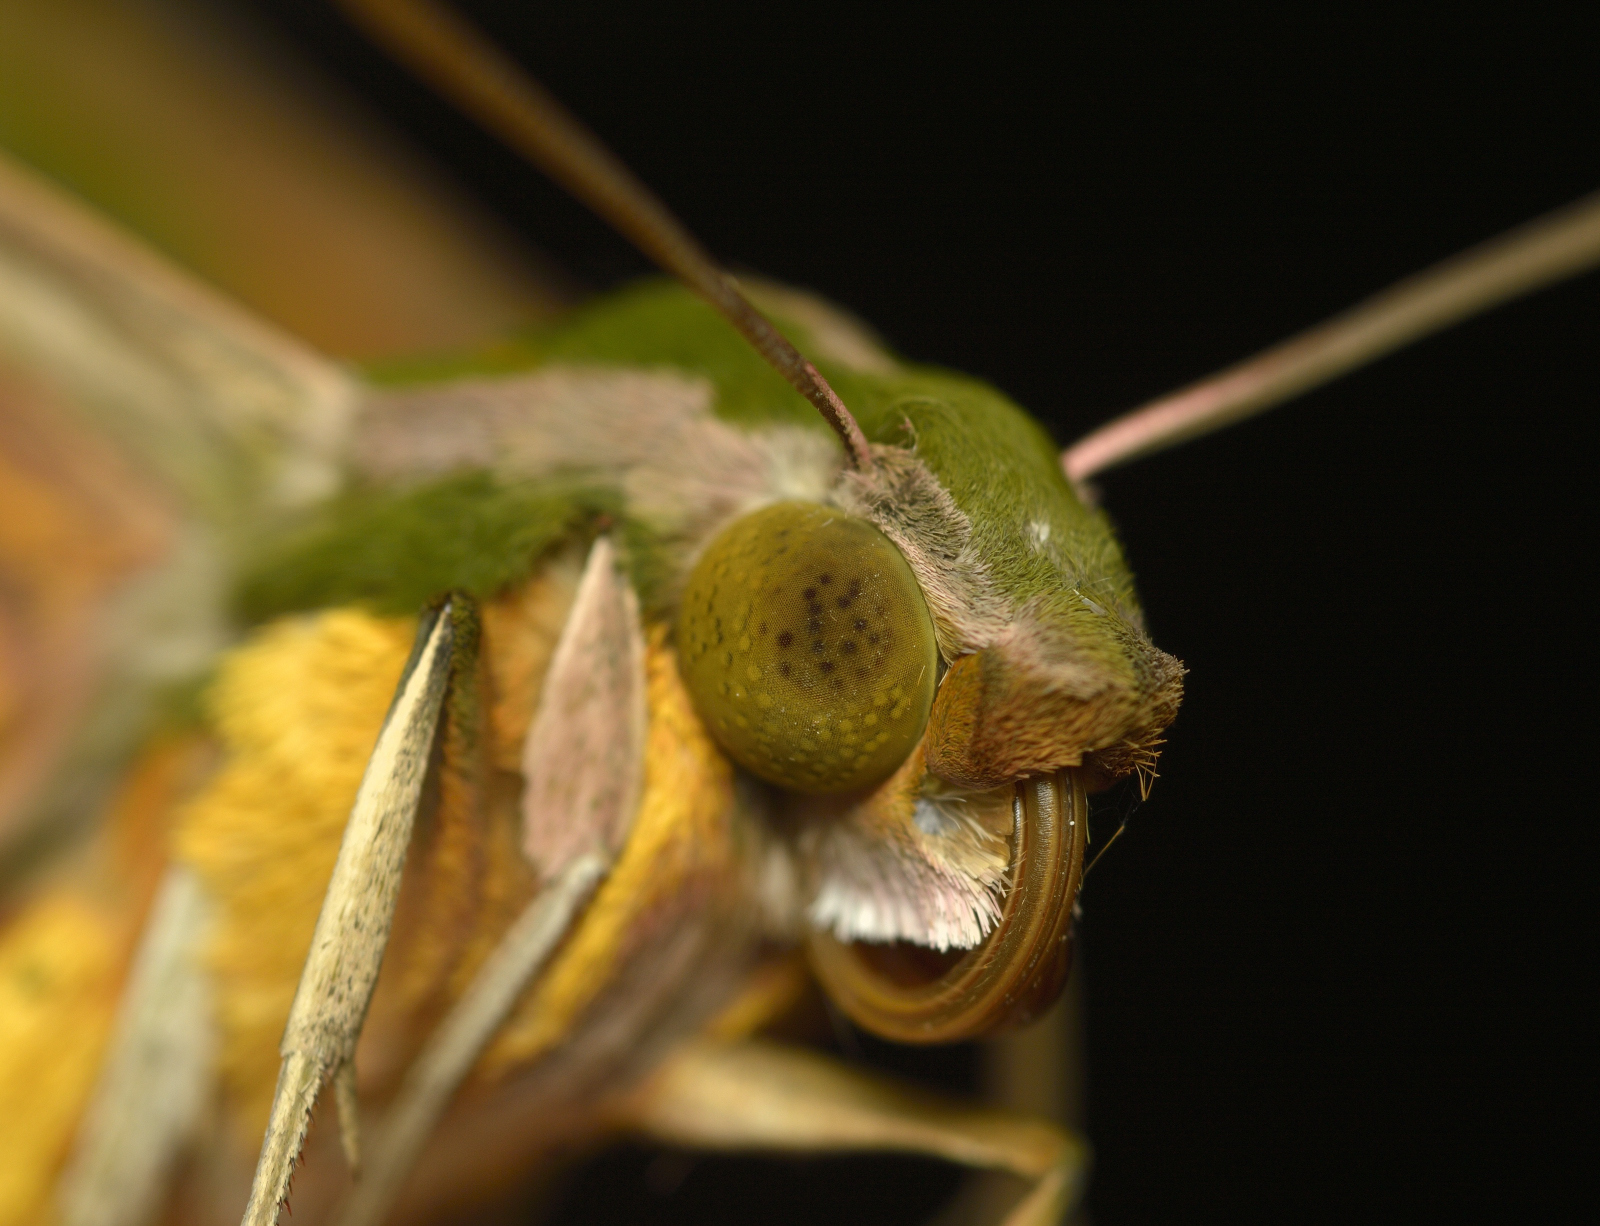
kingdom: Animalia
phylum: Arthropoda
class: Insecta
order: Lepidoptera
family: Sphingidae
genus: Pergesa
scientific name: Pergesa acteus
